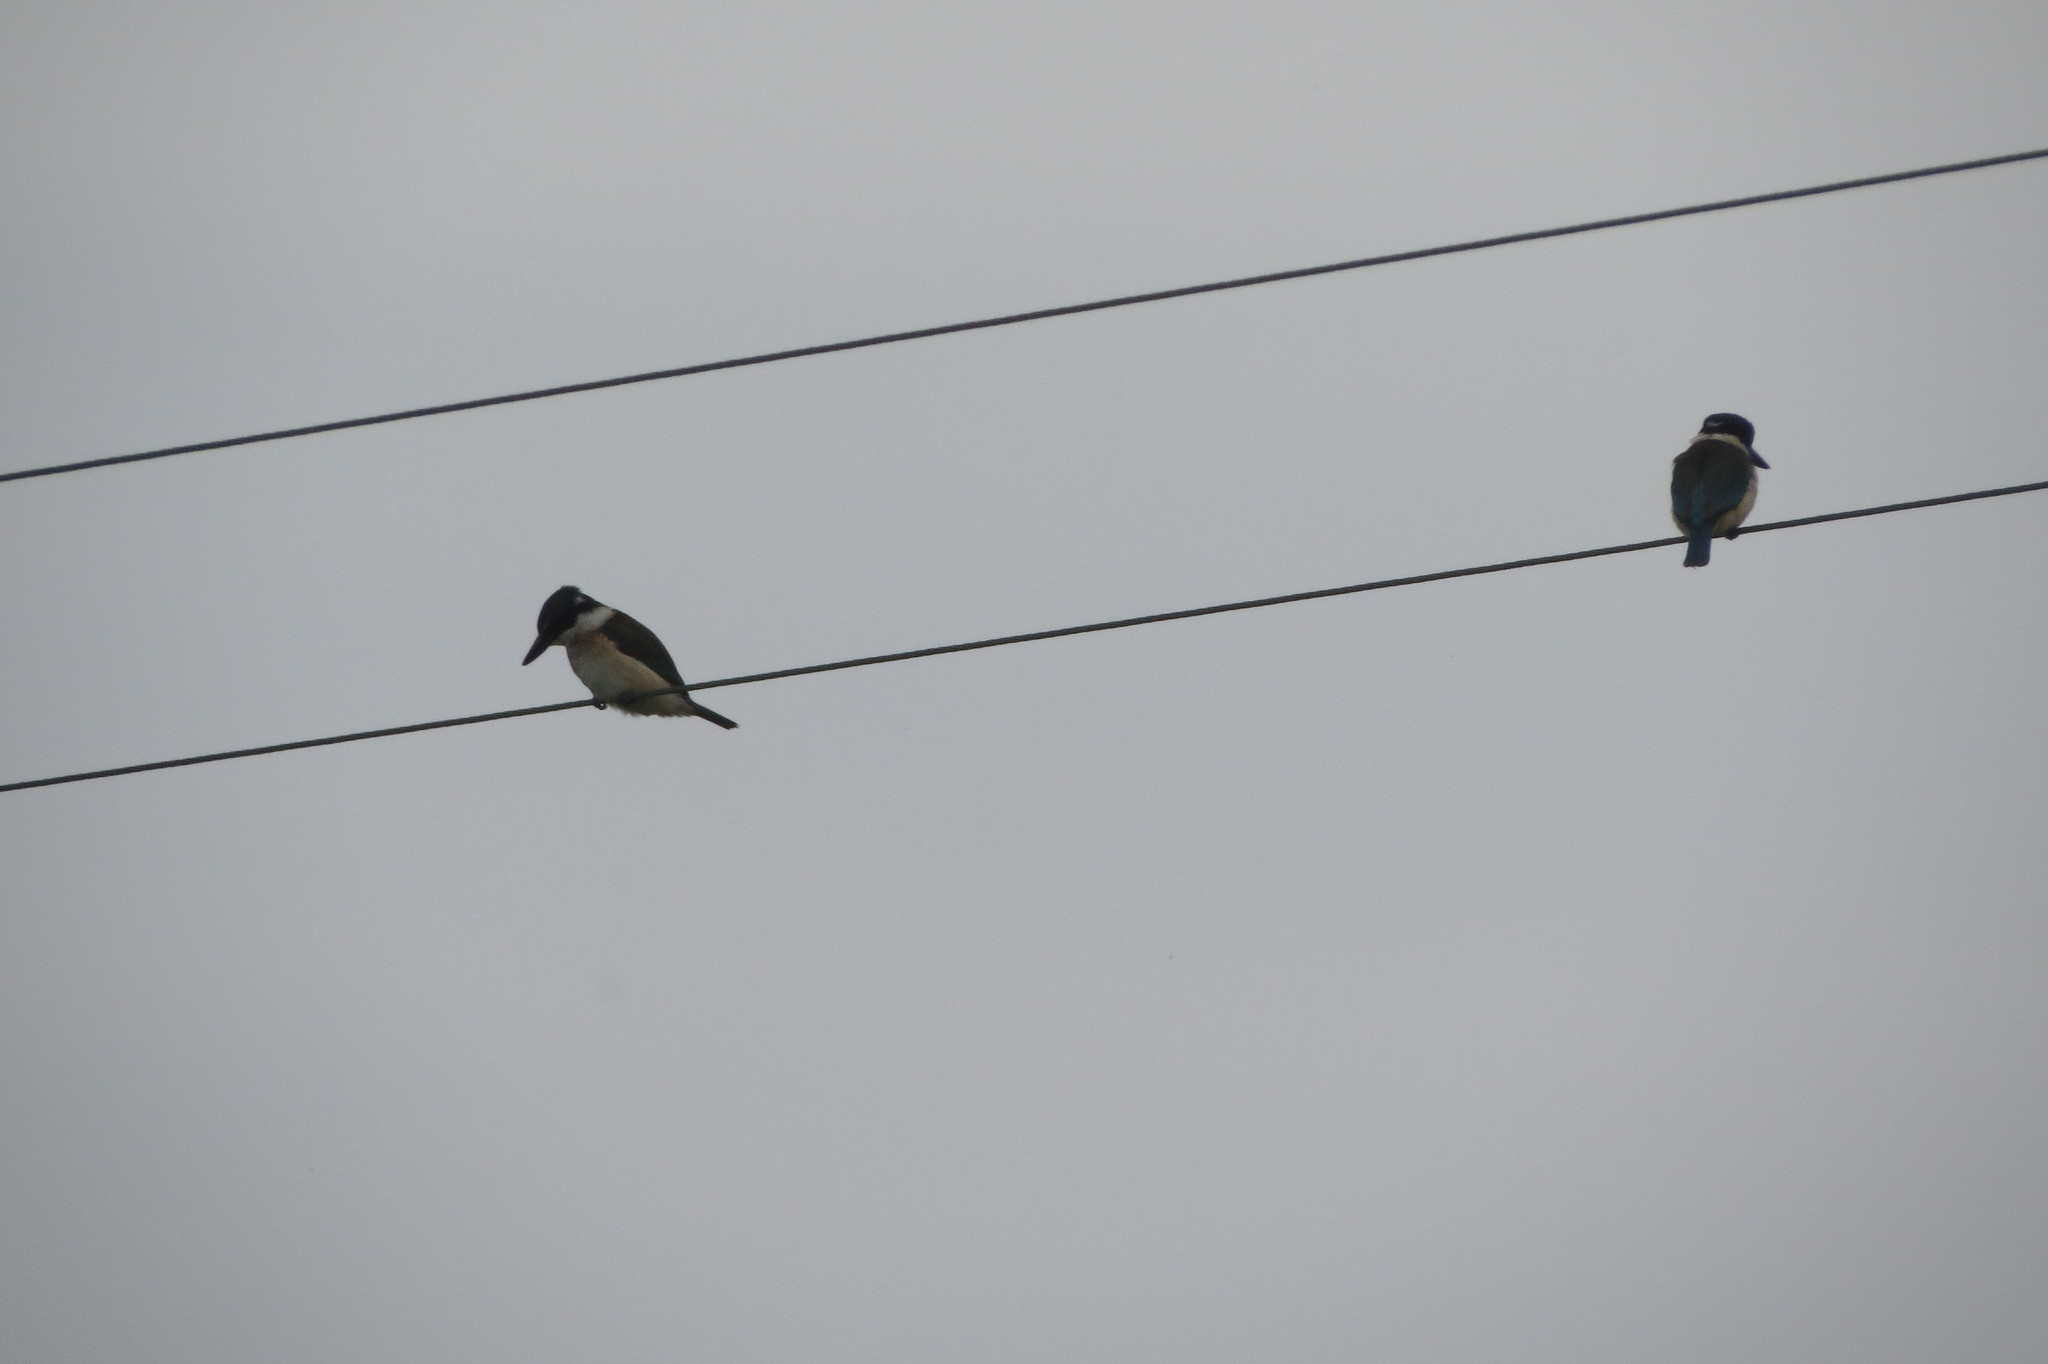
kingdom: Animalia
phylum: Chordata
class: Aves
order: Coraciiformes
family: Alcedinidae
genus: Todiramphus
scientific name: Todiramphus sanctus
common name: Sacred kingfisher
